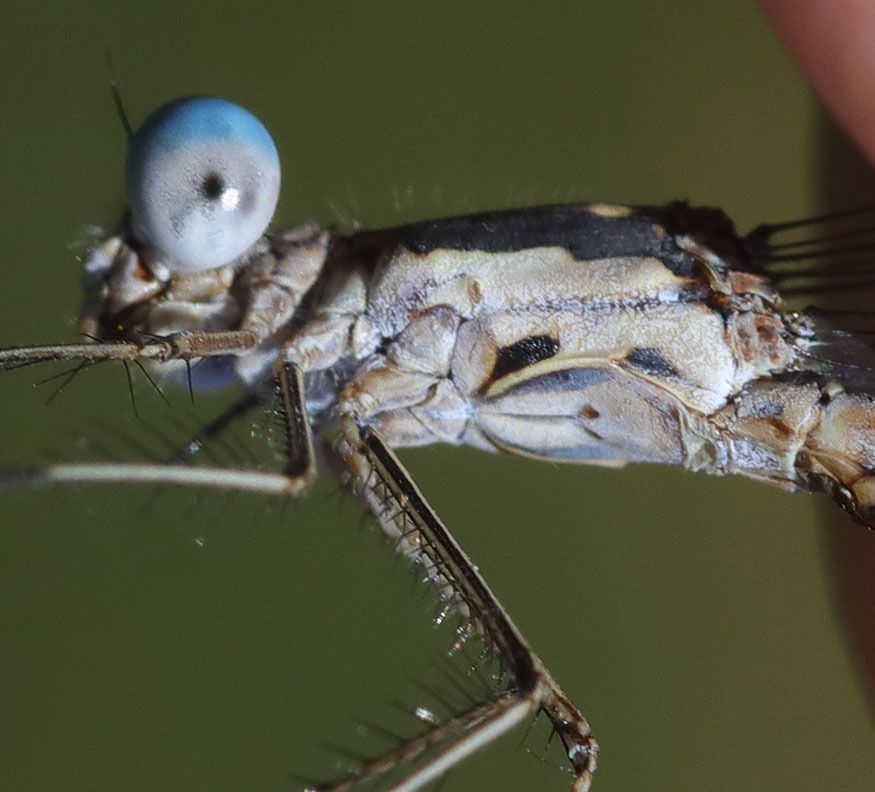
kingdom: Animalia
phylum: Arthropoda
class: Insecta
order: Odonata
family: Lestidae
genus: Lestes
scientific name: Lestes congener
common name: Spotted spreadwing
